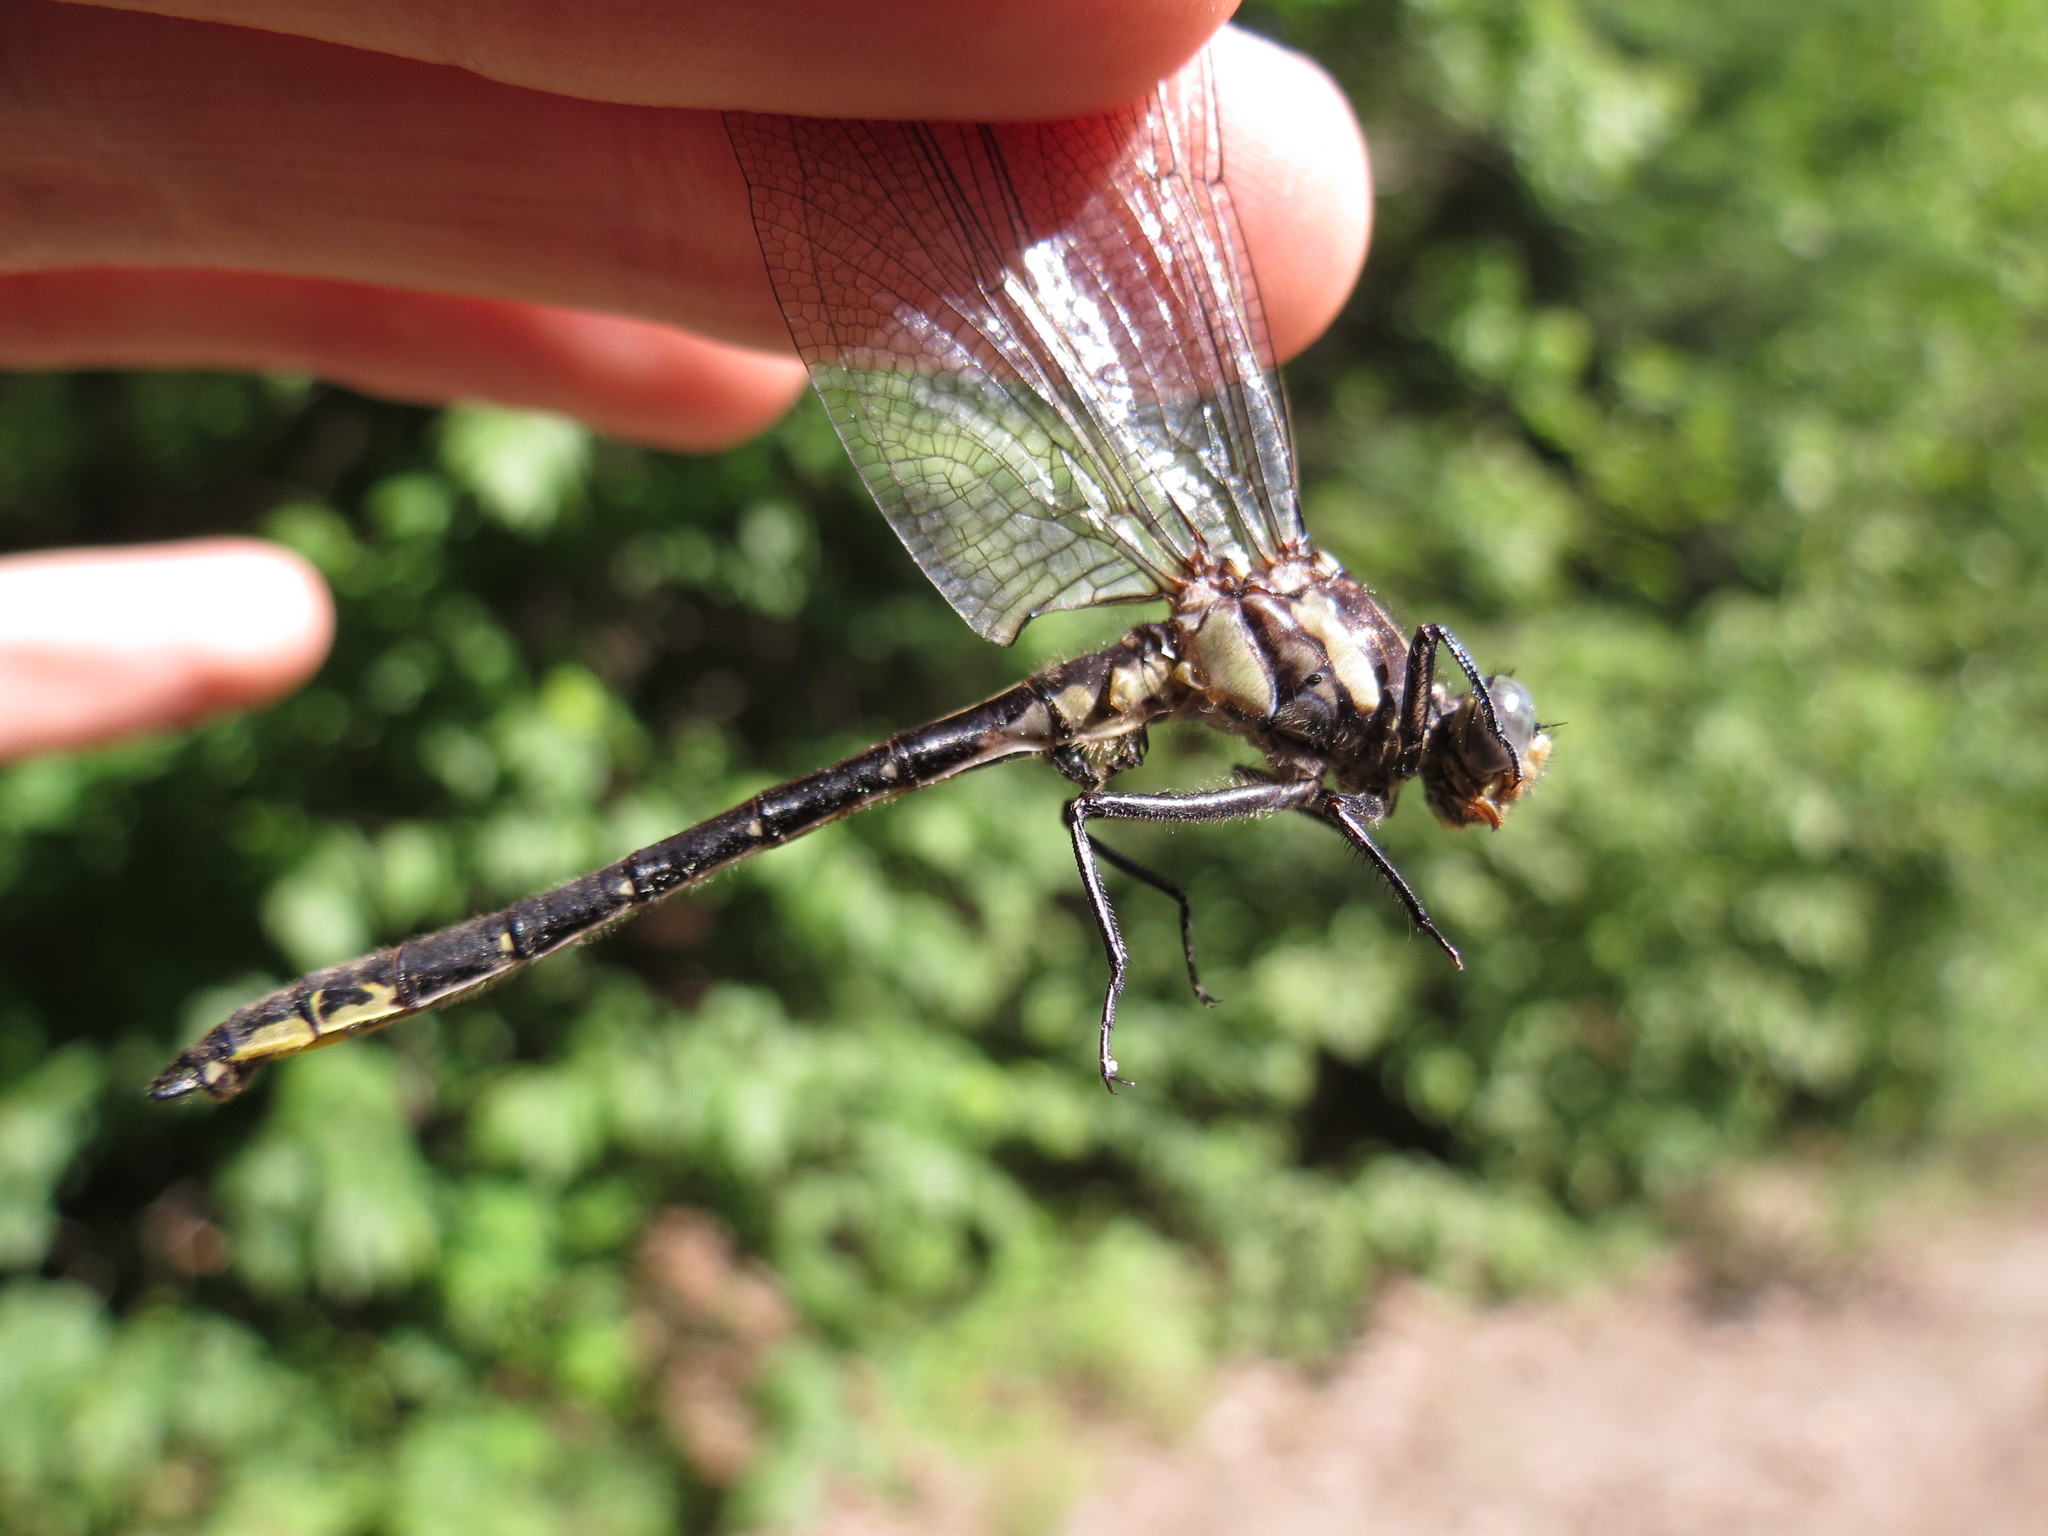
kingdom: Animalia
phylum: Arthropoda
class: Insecta
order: Odonata
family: Gomphidae
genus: Phanogomphus
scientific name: Phanogomphus descriptus
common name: Harpoon clubtail
